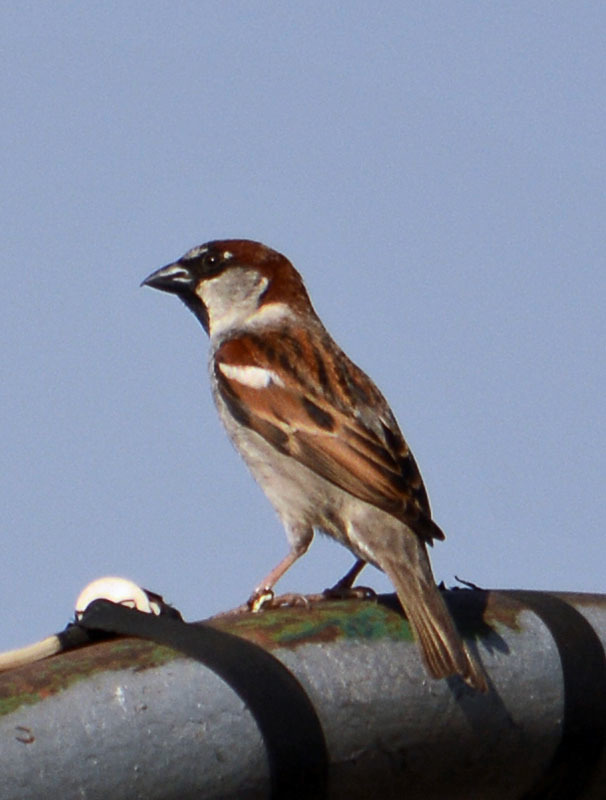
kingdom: Animalia
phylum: Chordata
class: Aves
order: Passeriformes
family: Passeridae
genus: Passer
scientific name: Passer domesticus
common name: House sparrow
